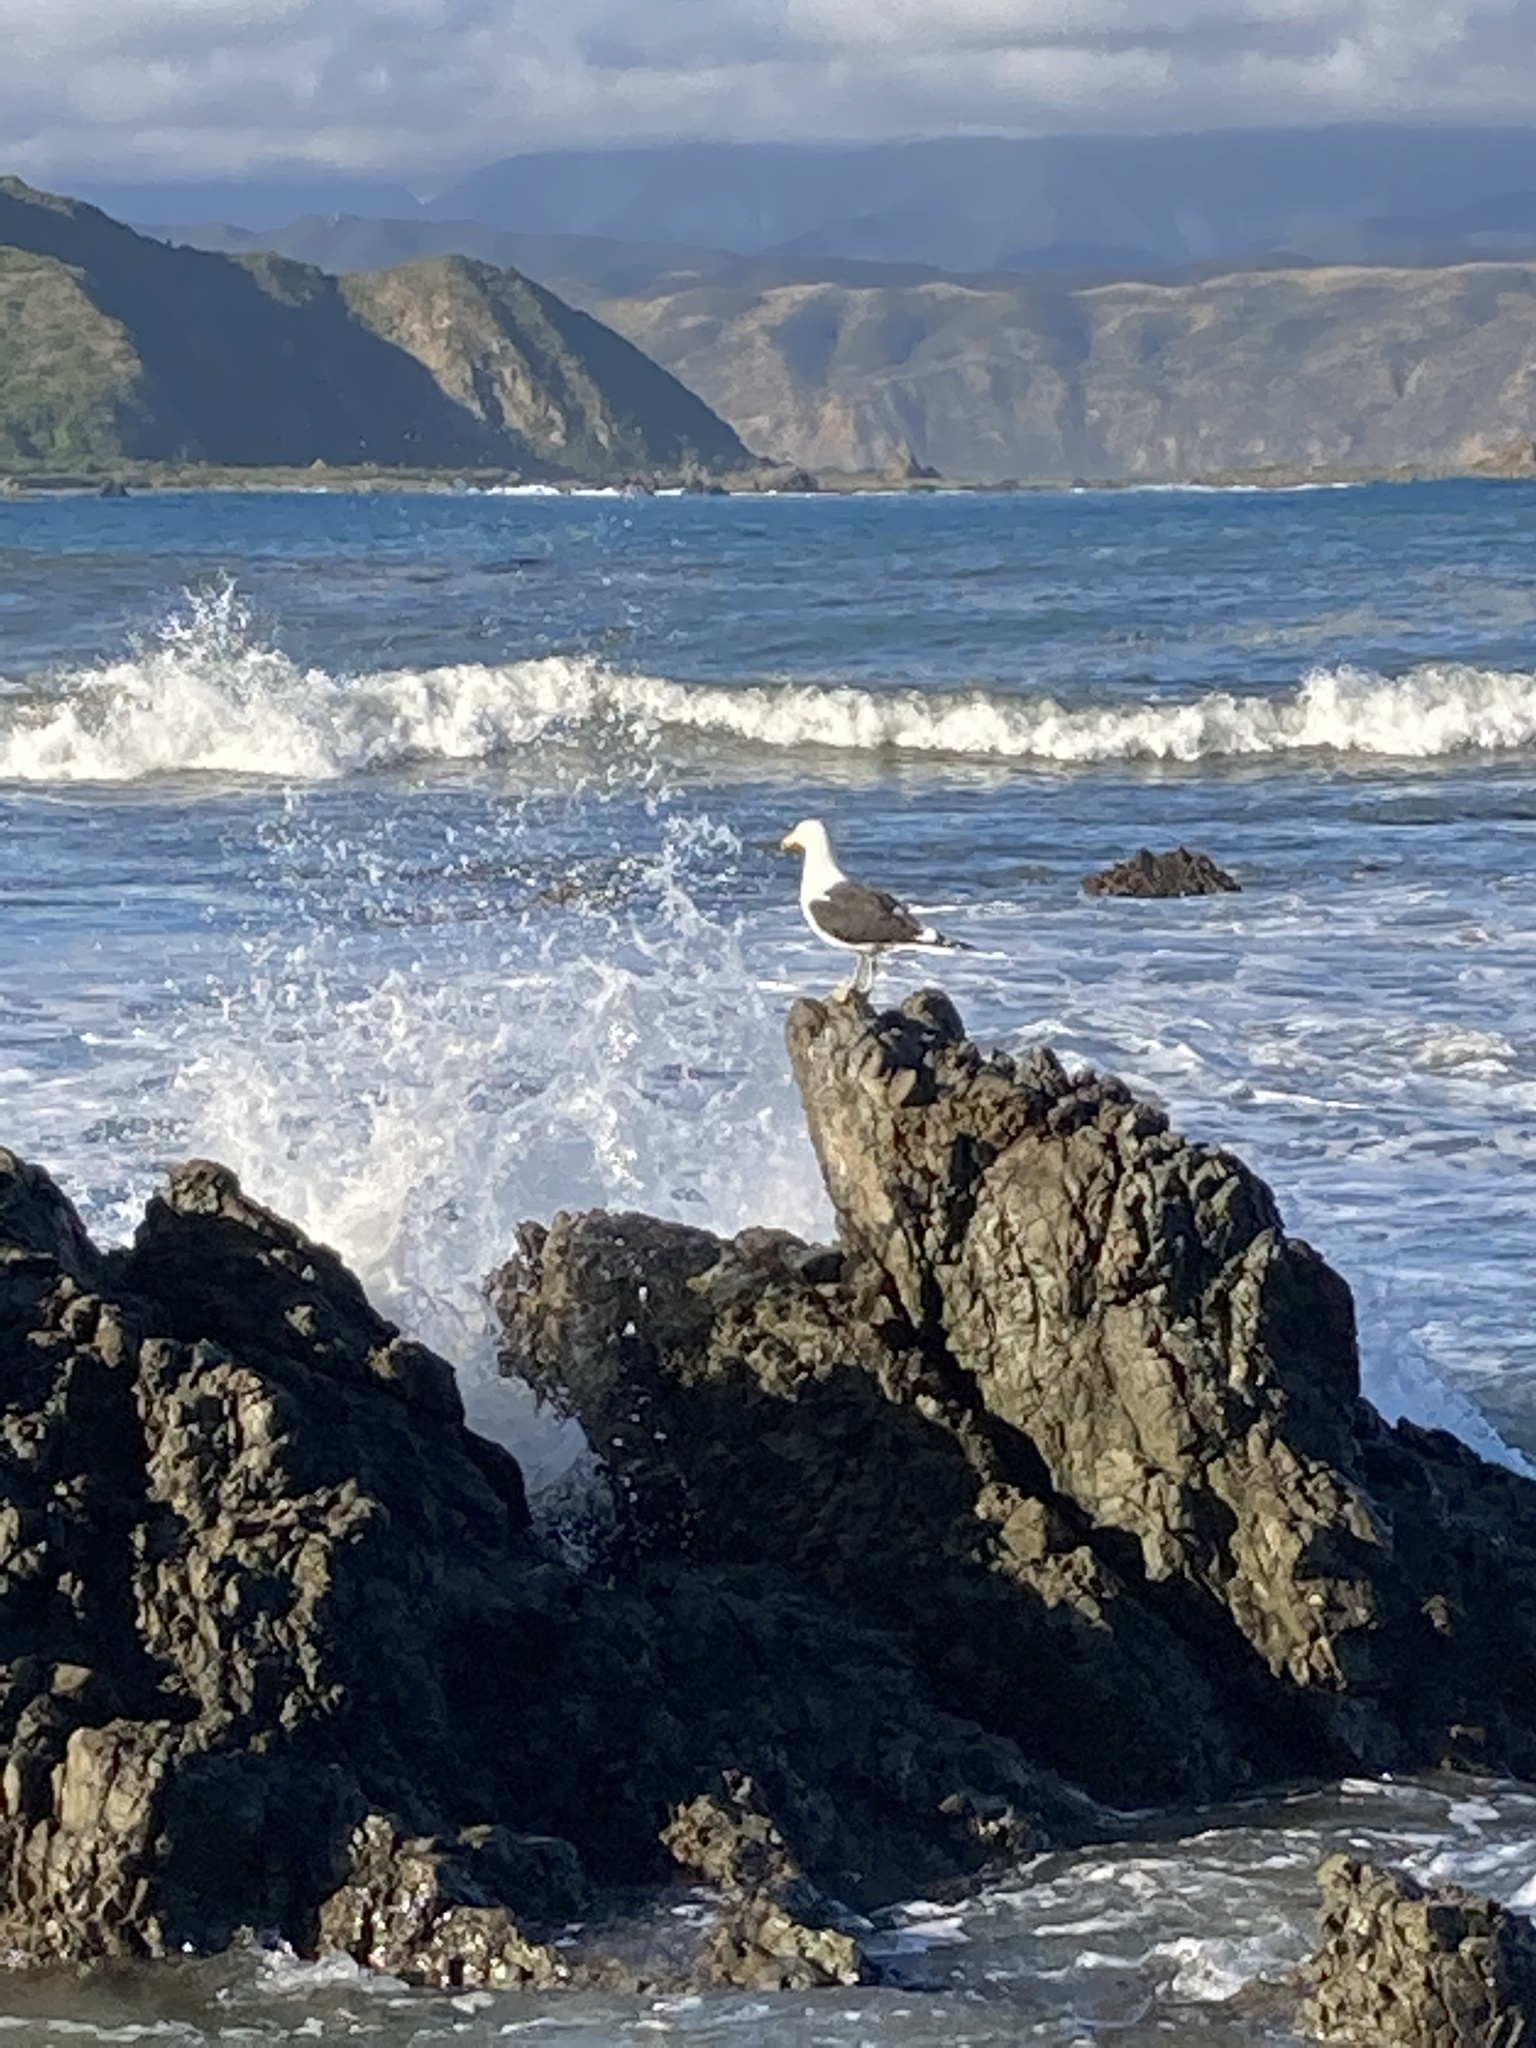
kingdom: Animalia
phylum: Chordata
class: Aves
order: Charadriiformes
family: Laridae
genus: Larus
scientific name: Larus dominicanus
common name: Kelp gull
